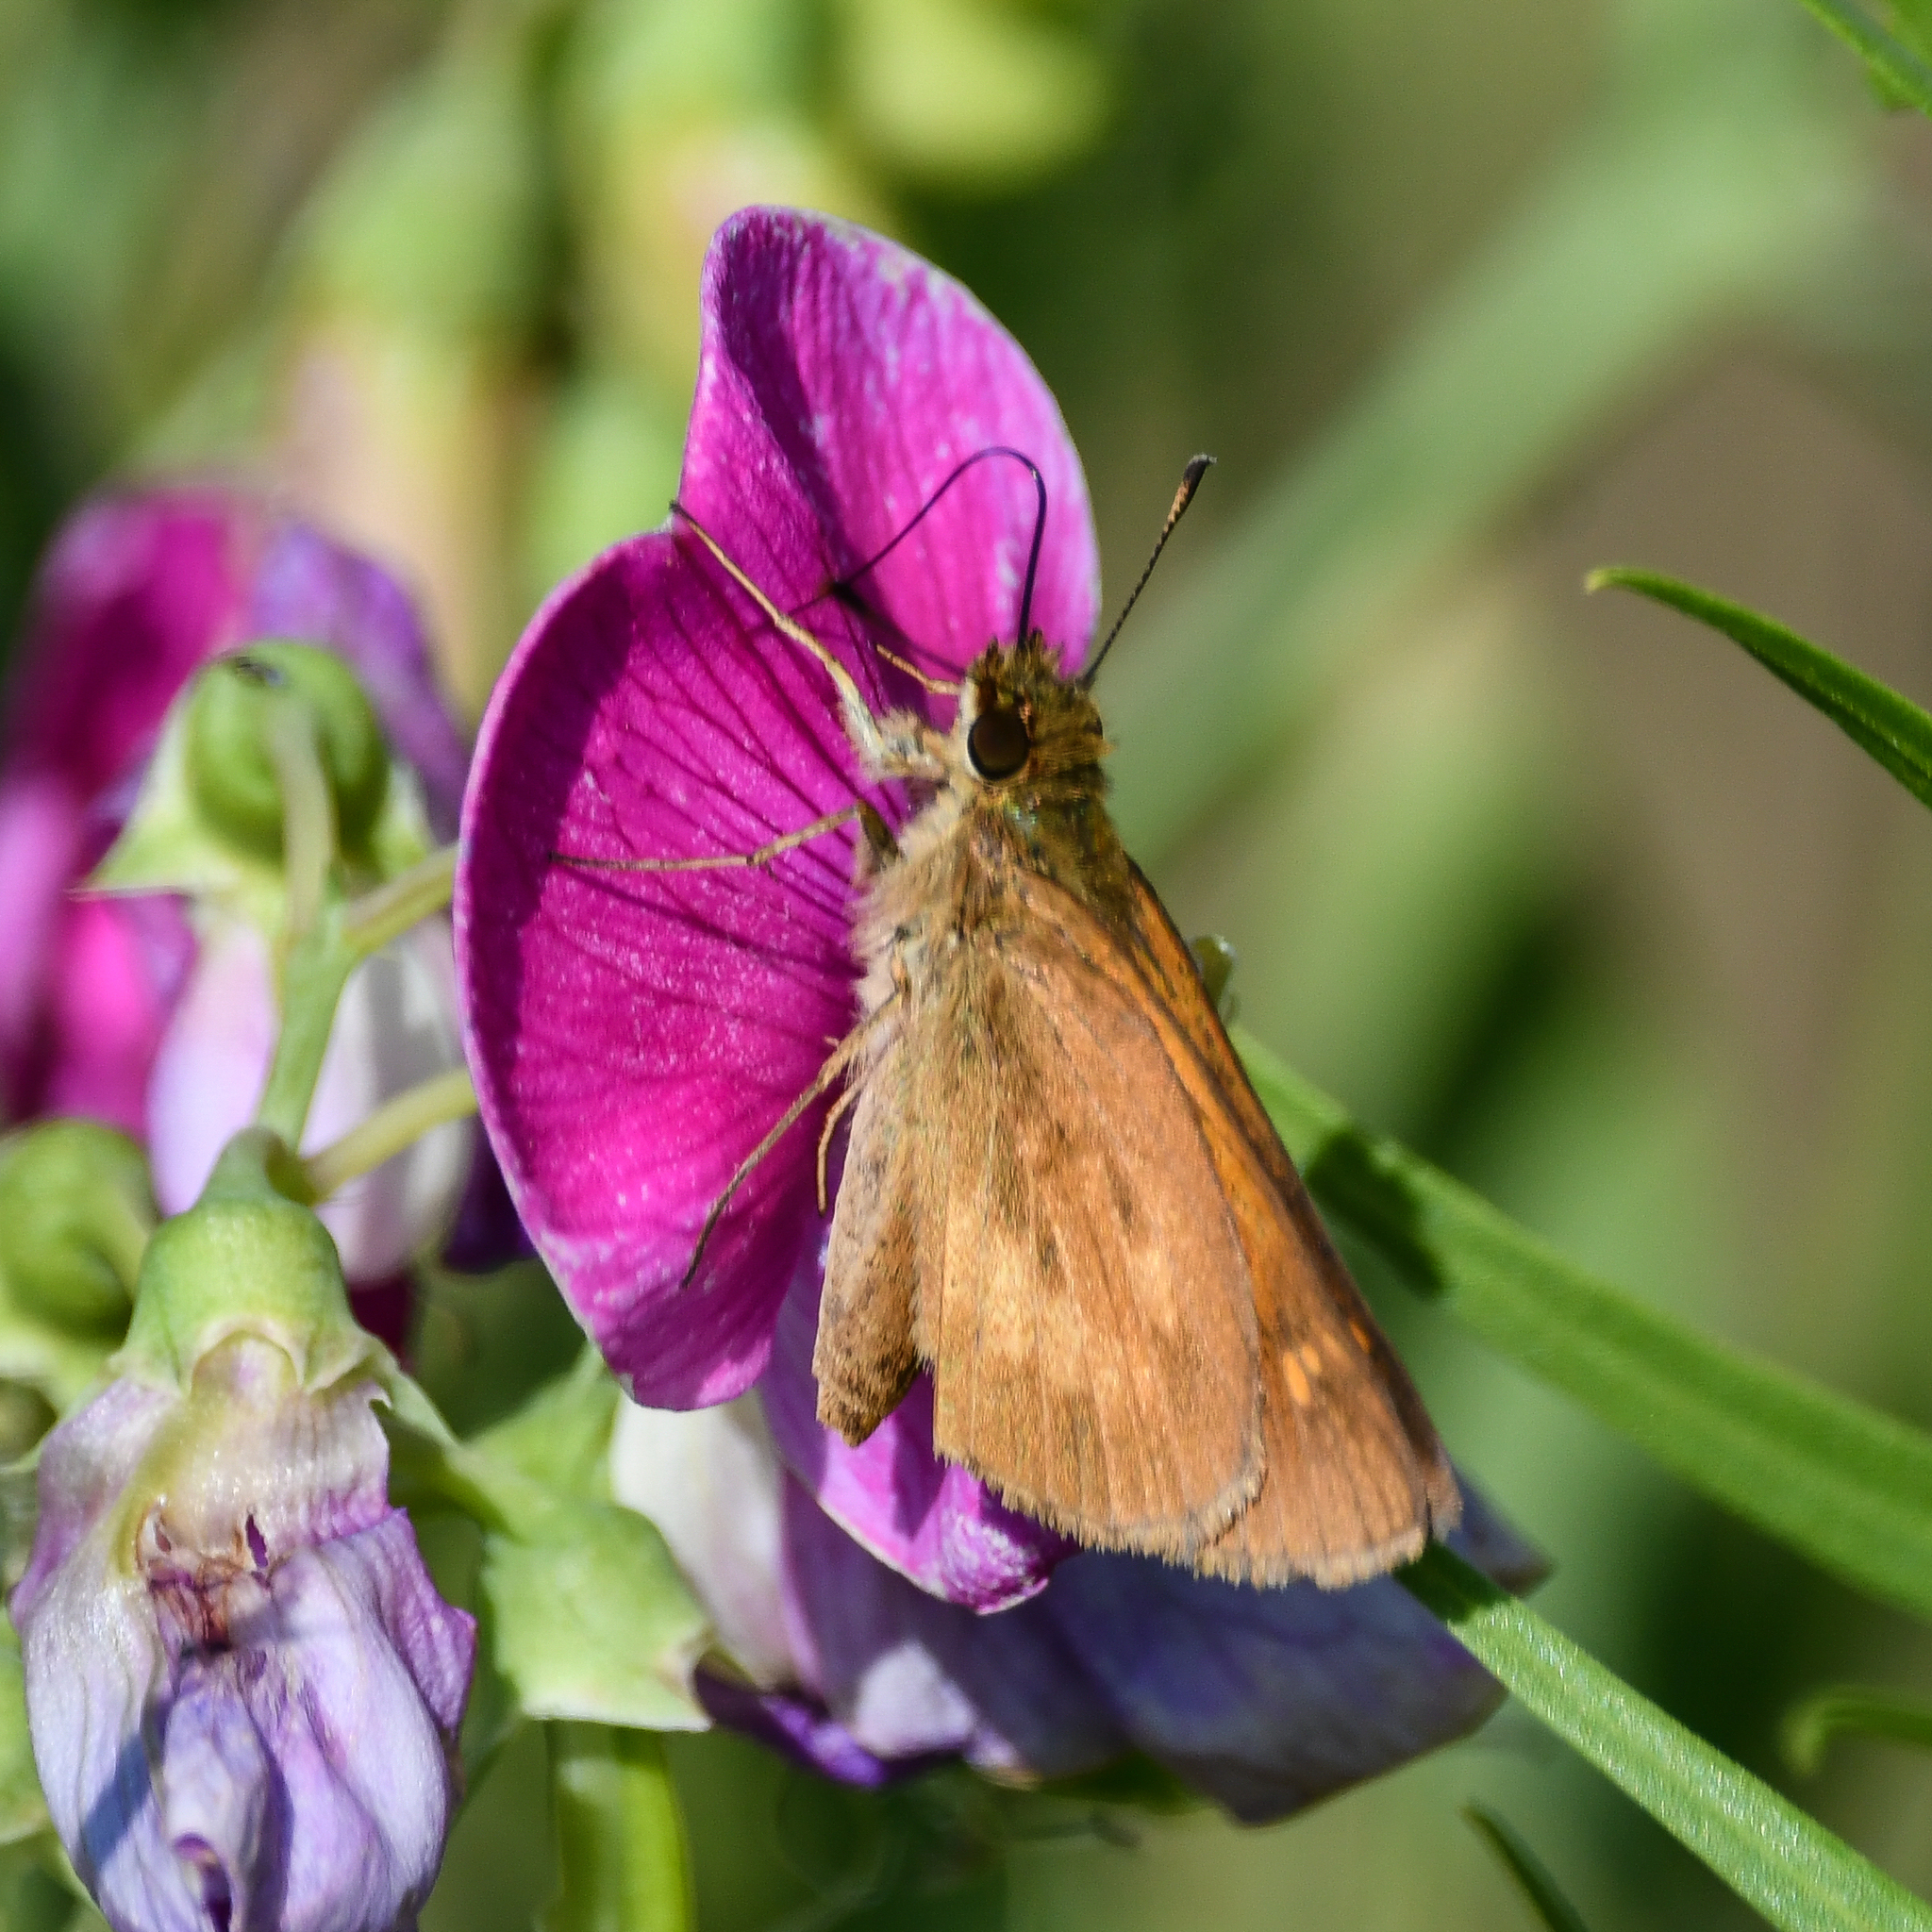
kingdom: Animalia
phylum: Arthropoda
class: Insecta
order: Lepidoptera
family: Hesperiidae
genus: Poanes
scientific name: Poanes viator
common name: Broad-winged skipper
